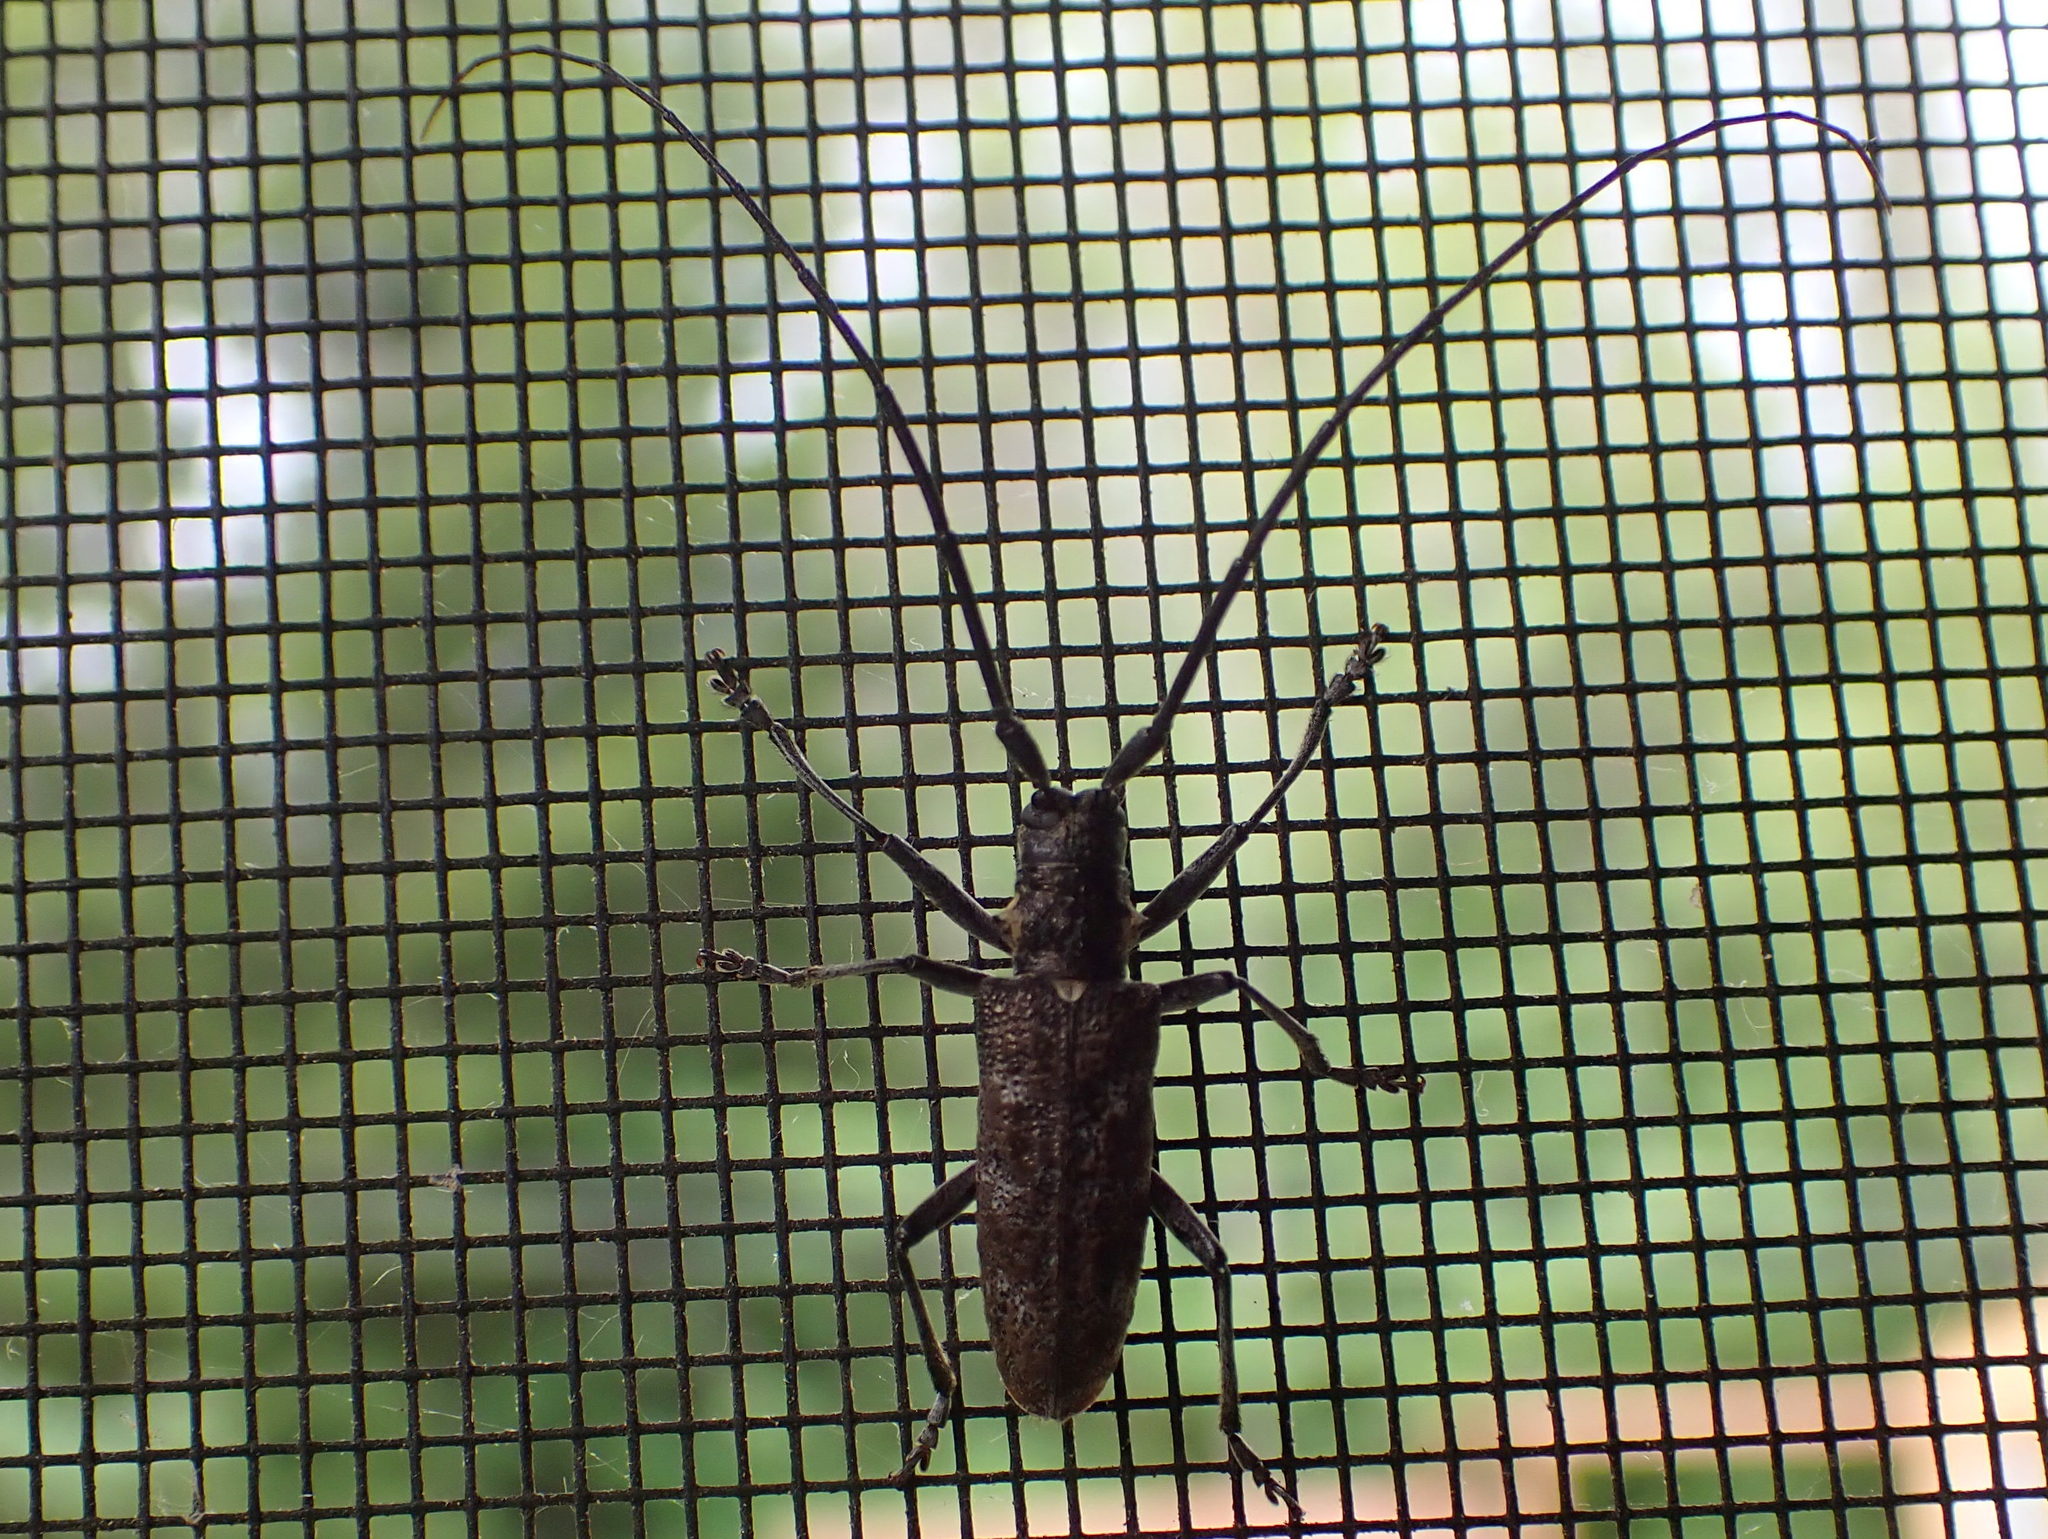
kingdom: Animalia
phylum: Arthropoda
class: Insecta
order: Coleoptera
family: Cerambycidae
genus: Monochamus
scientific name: Monochamus scutellatus
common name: White-spotted sawyer beetle
